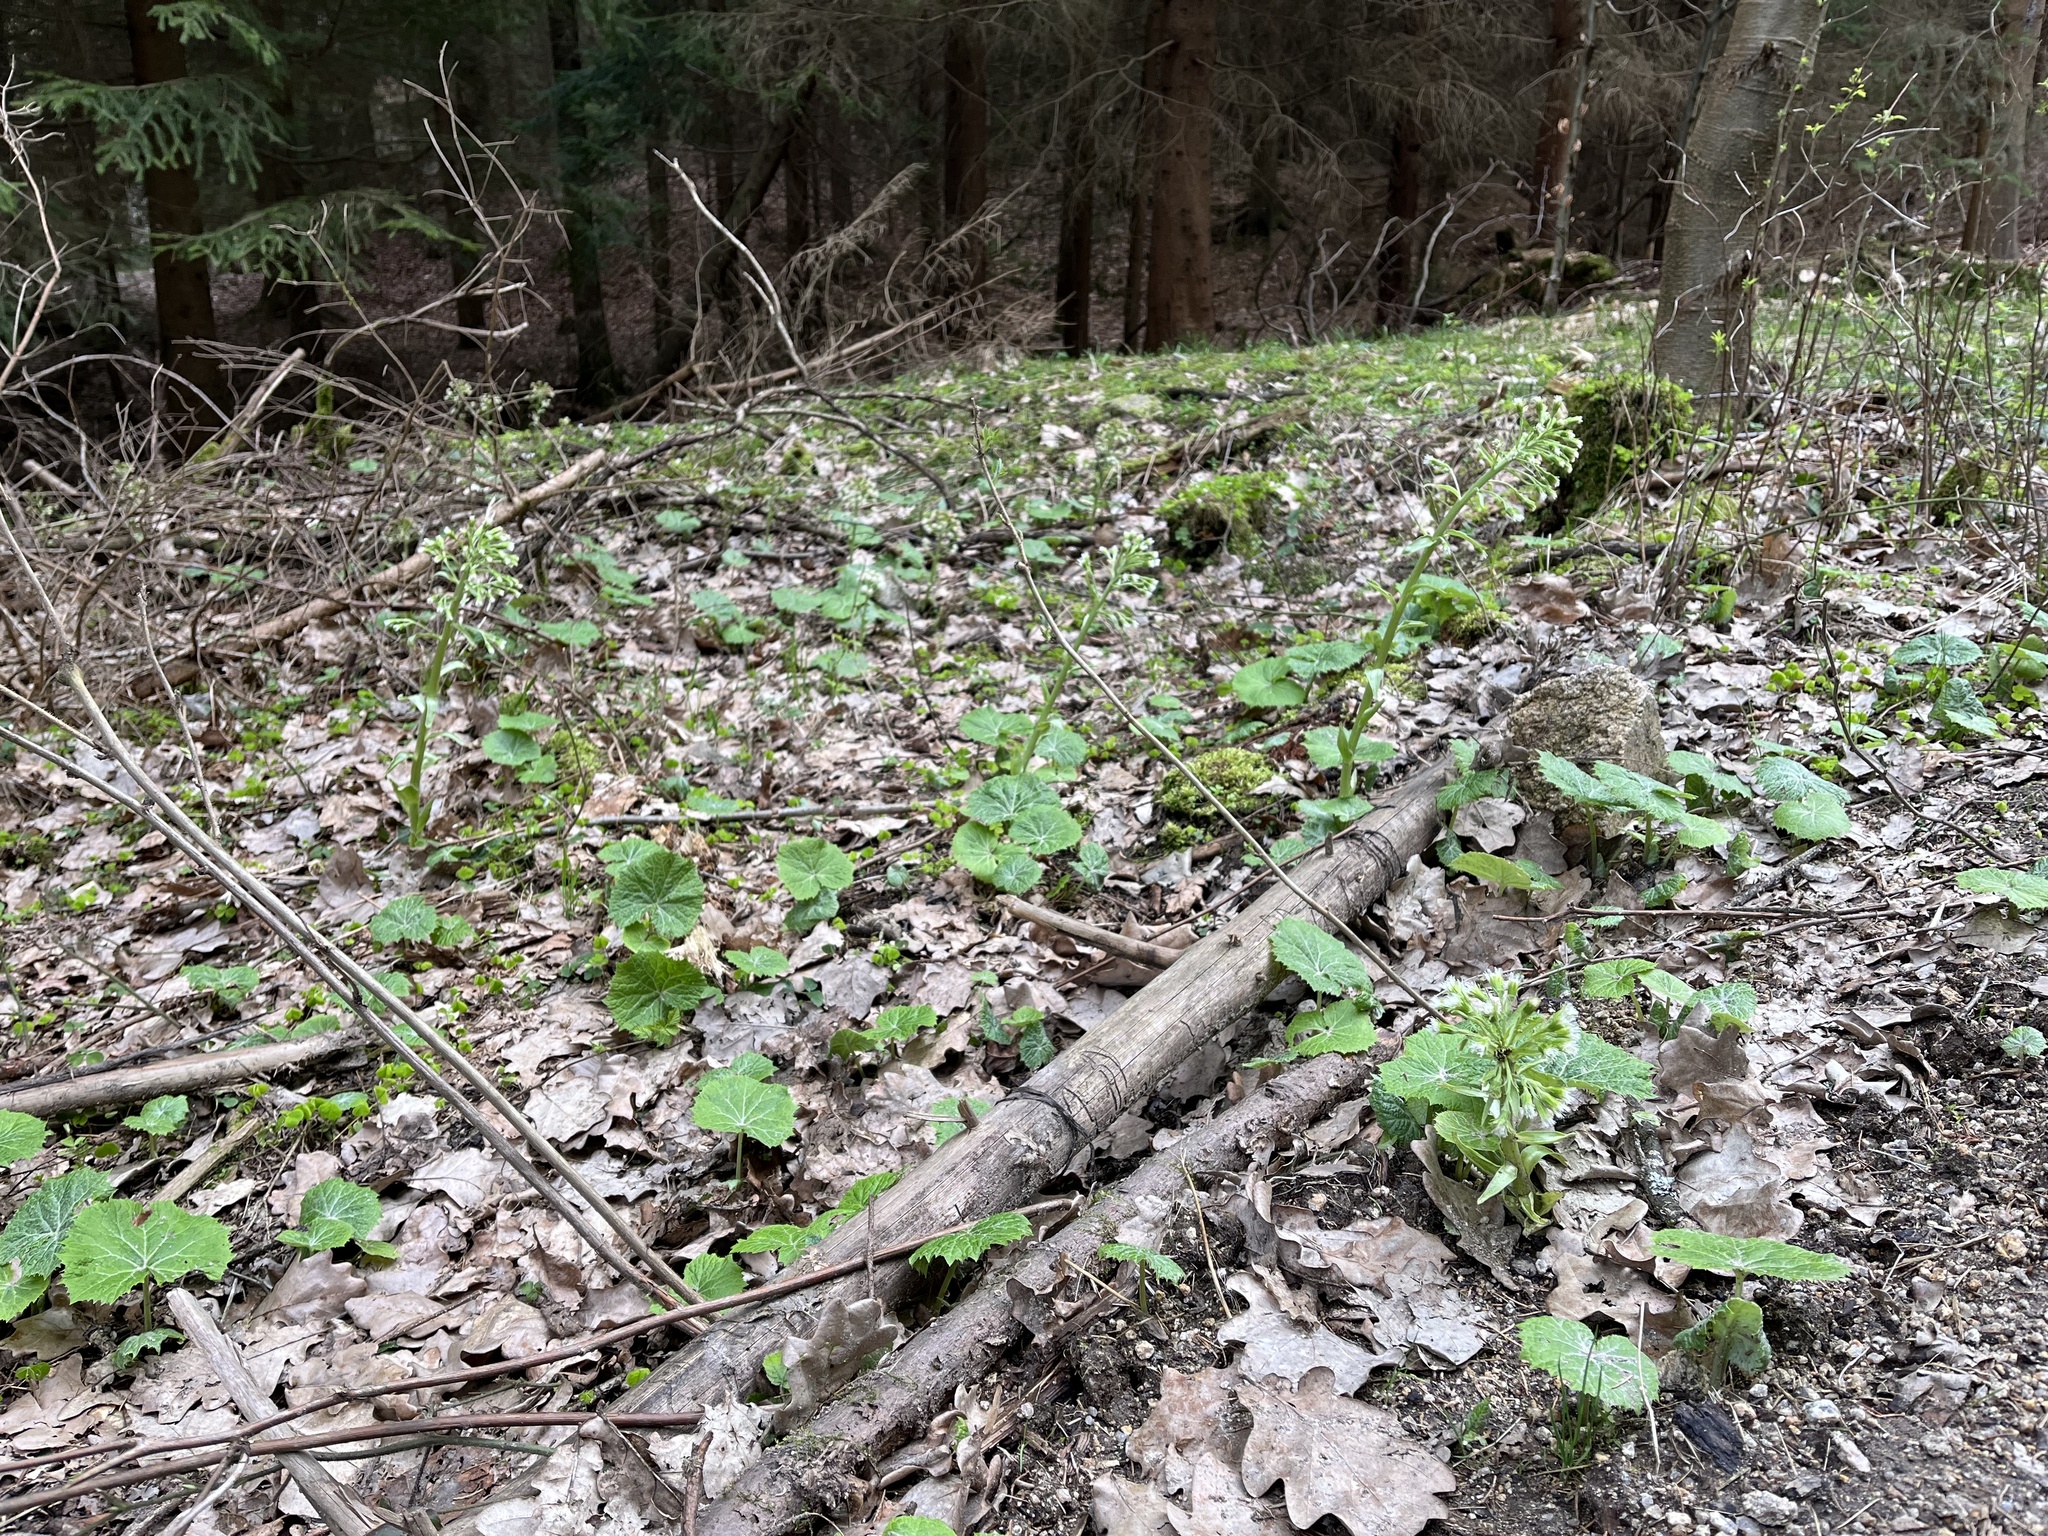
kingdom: Plantae
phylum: Tracheophyta
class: Magnoliopsida
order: Asterales
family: Asteraceae
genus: Petasites
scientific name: Petasites albus
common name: White butterbur
